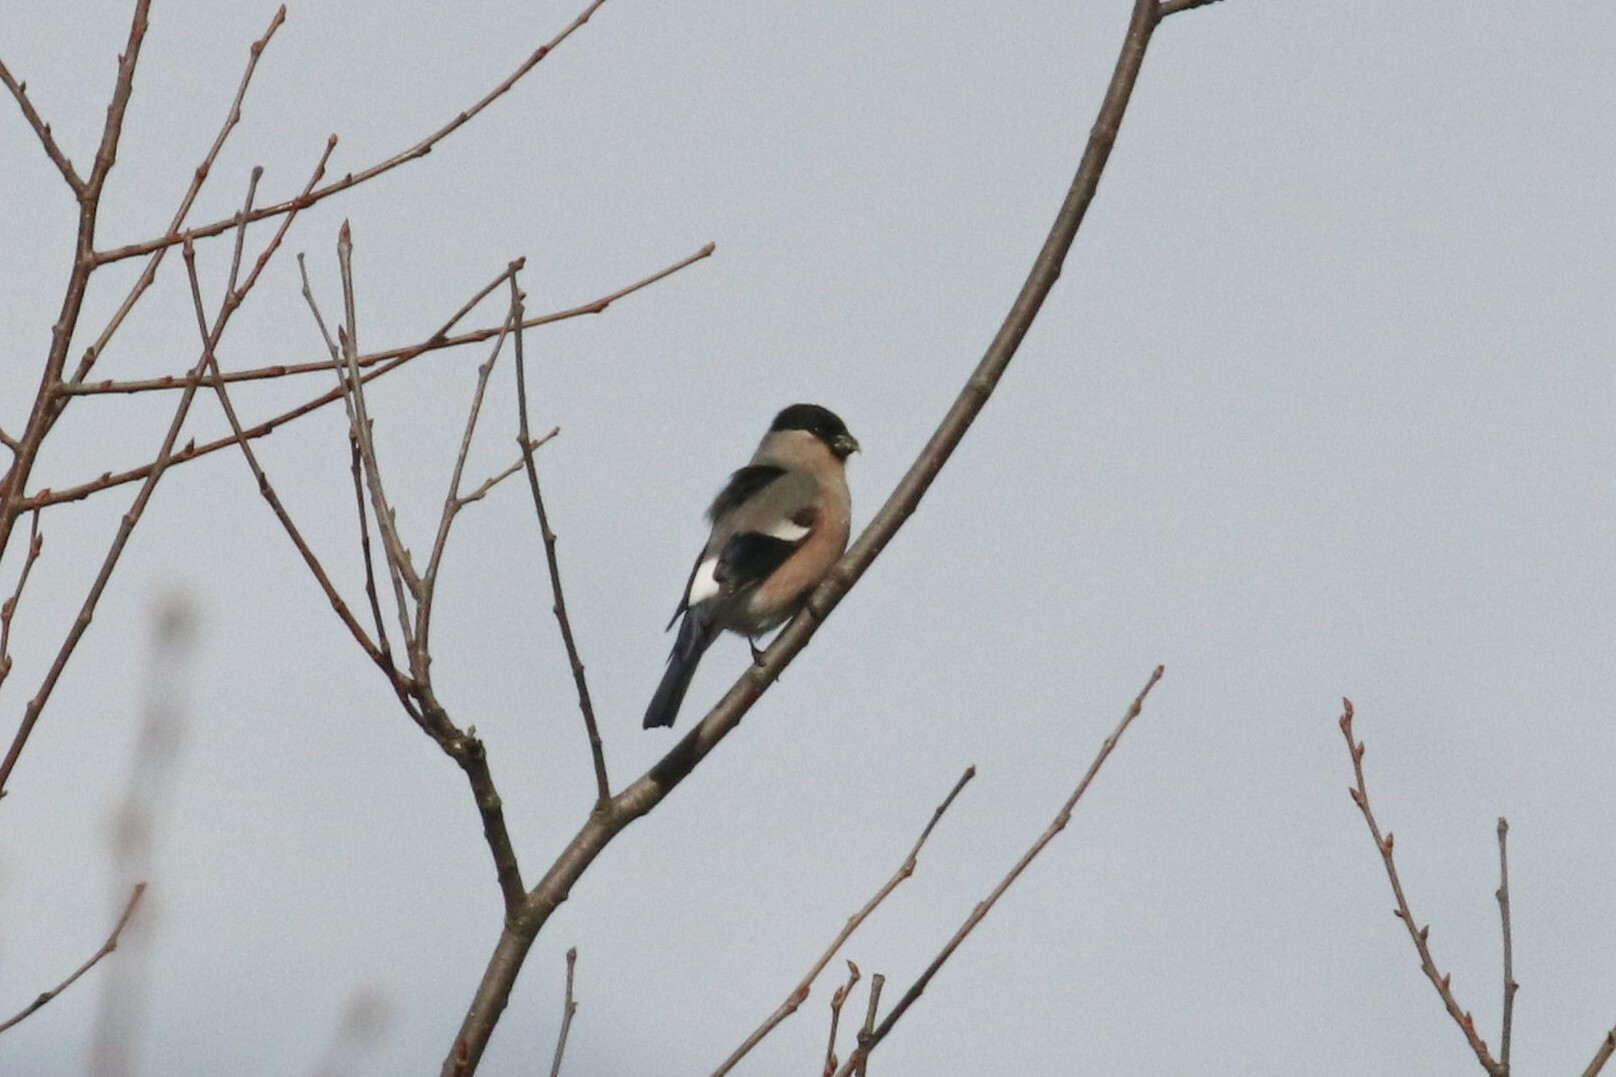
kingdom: Animalia
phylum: Chordata
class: Aves
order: Passeriformes
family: Fringillidae
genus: Pyrrhula
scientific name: Pyrrhula pyrrhula
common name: Eurasian bullfinch
